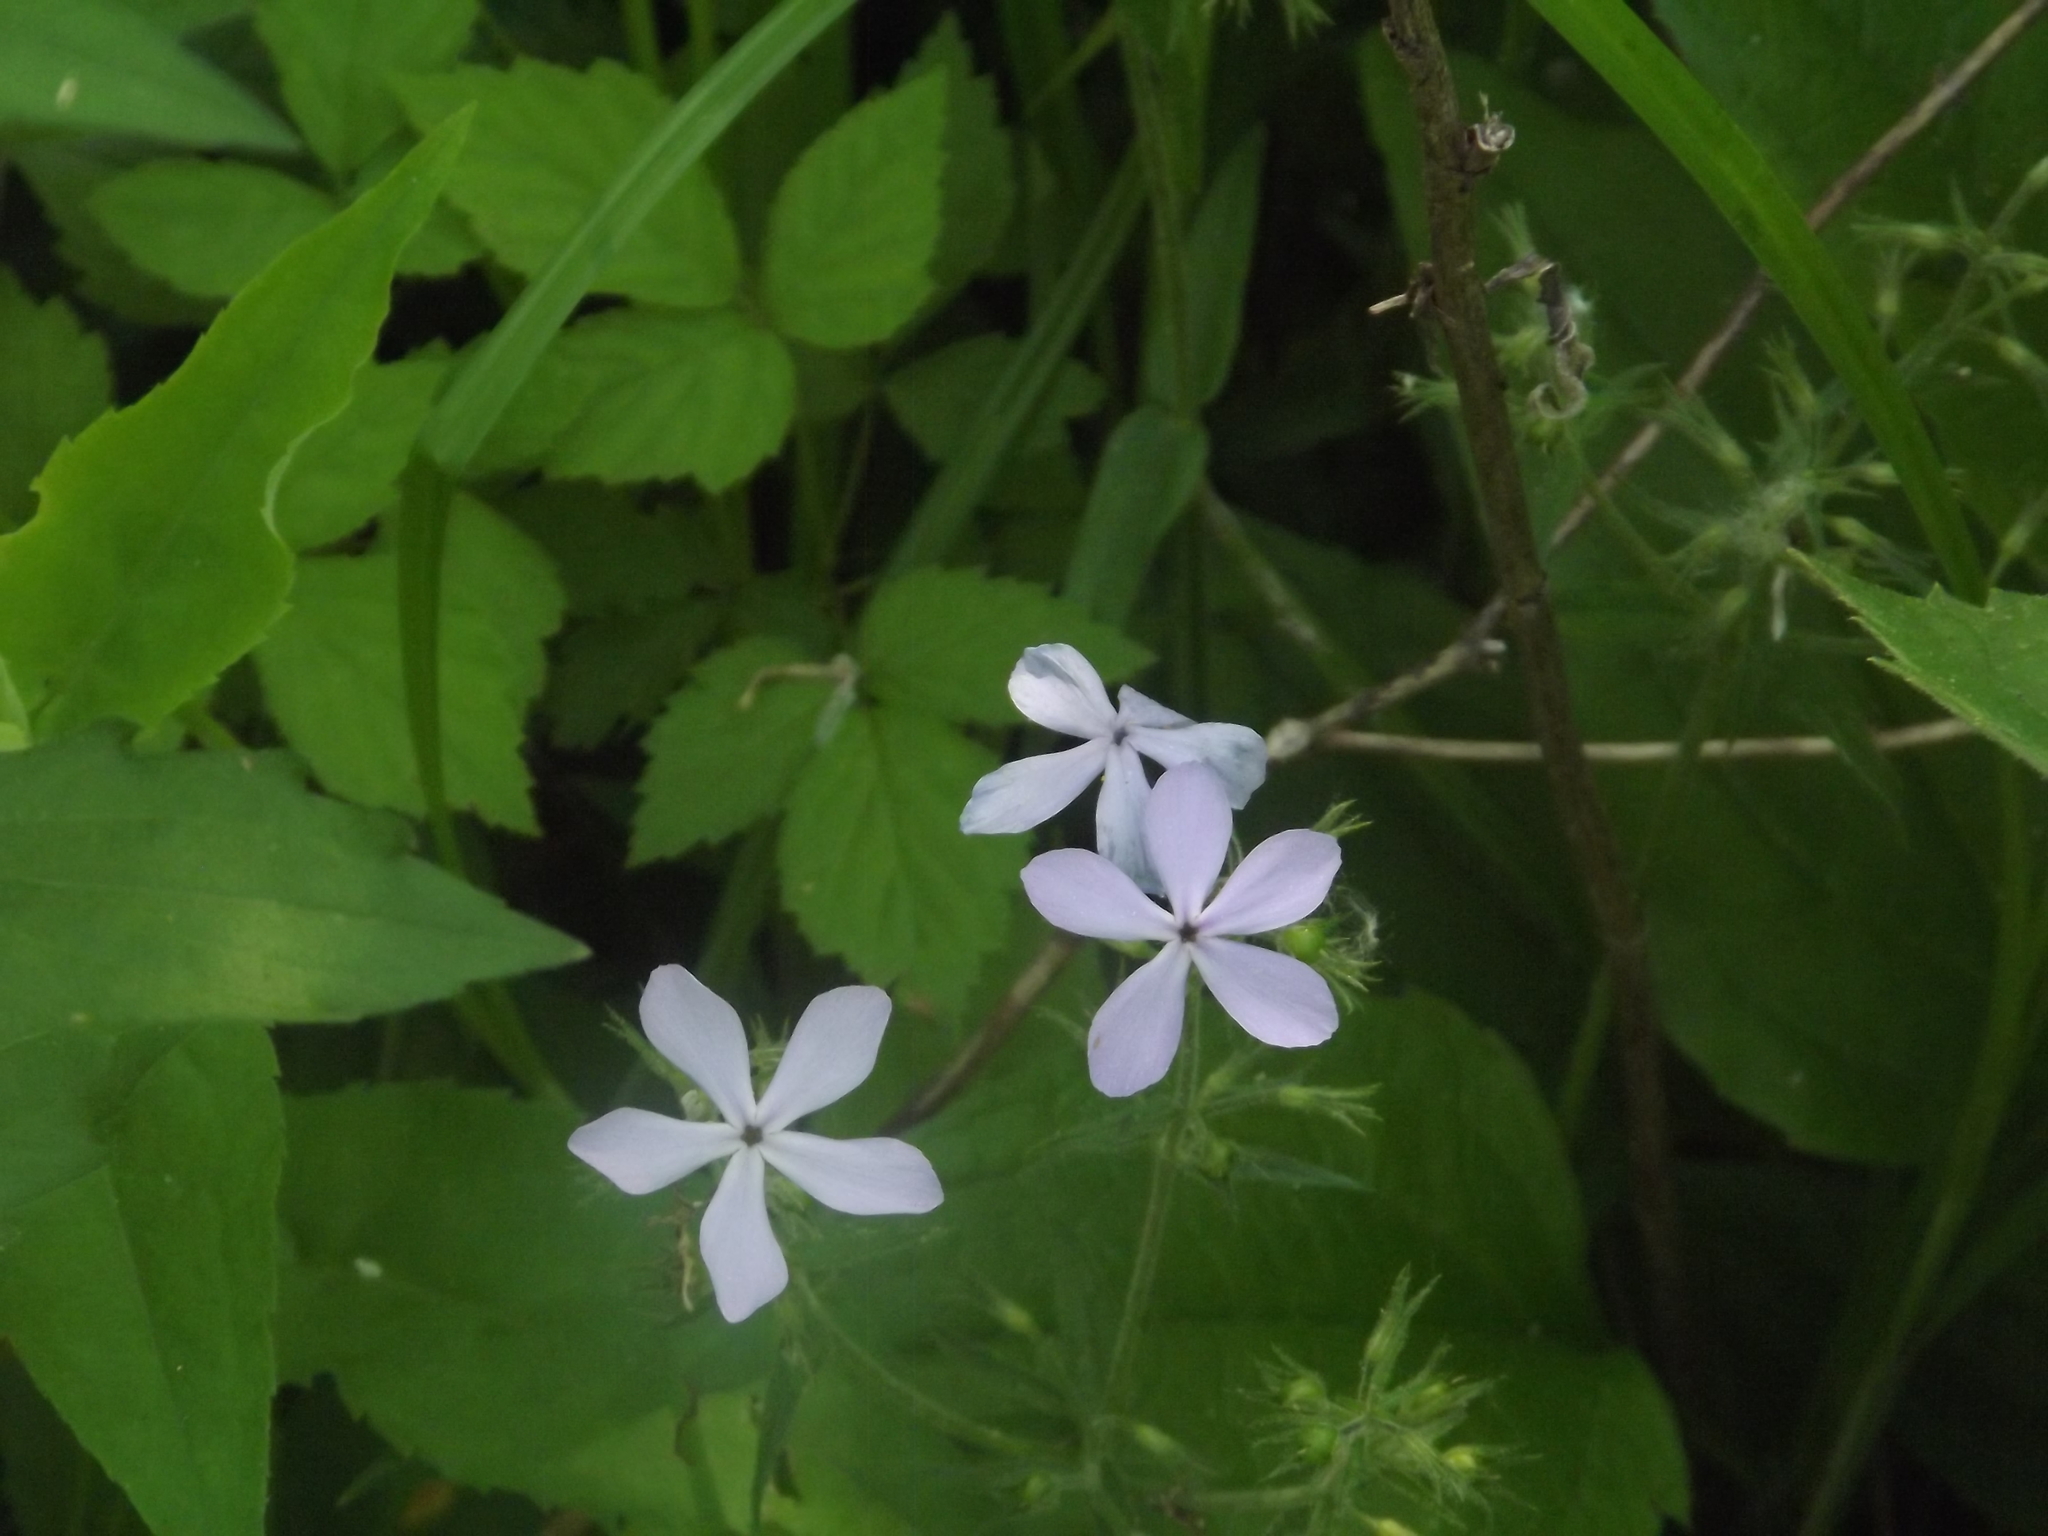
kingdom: Plantae
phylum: Tracheophyta
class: Magnoliopsida
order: Ericales
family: Polemoniaceae
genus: Phlox
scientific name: Phlox divaricata
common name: Blue phlox
